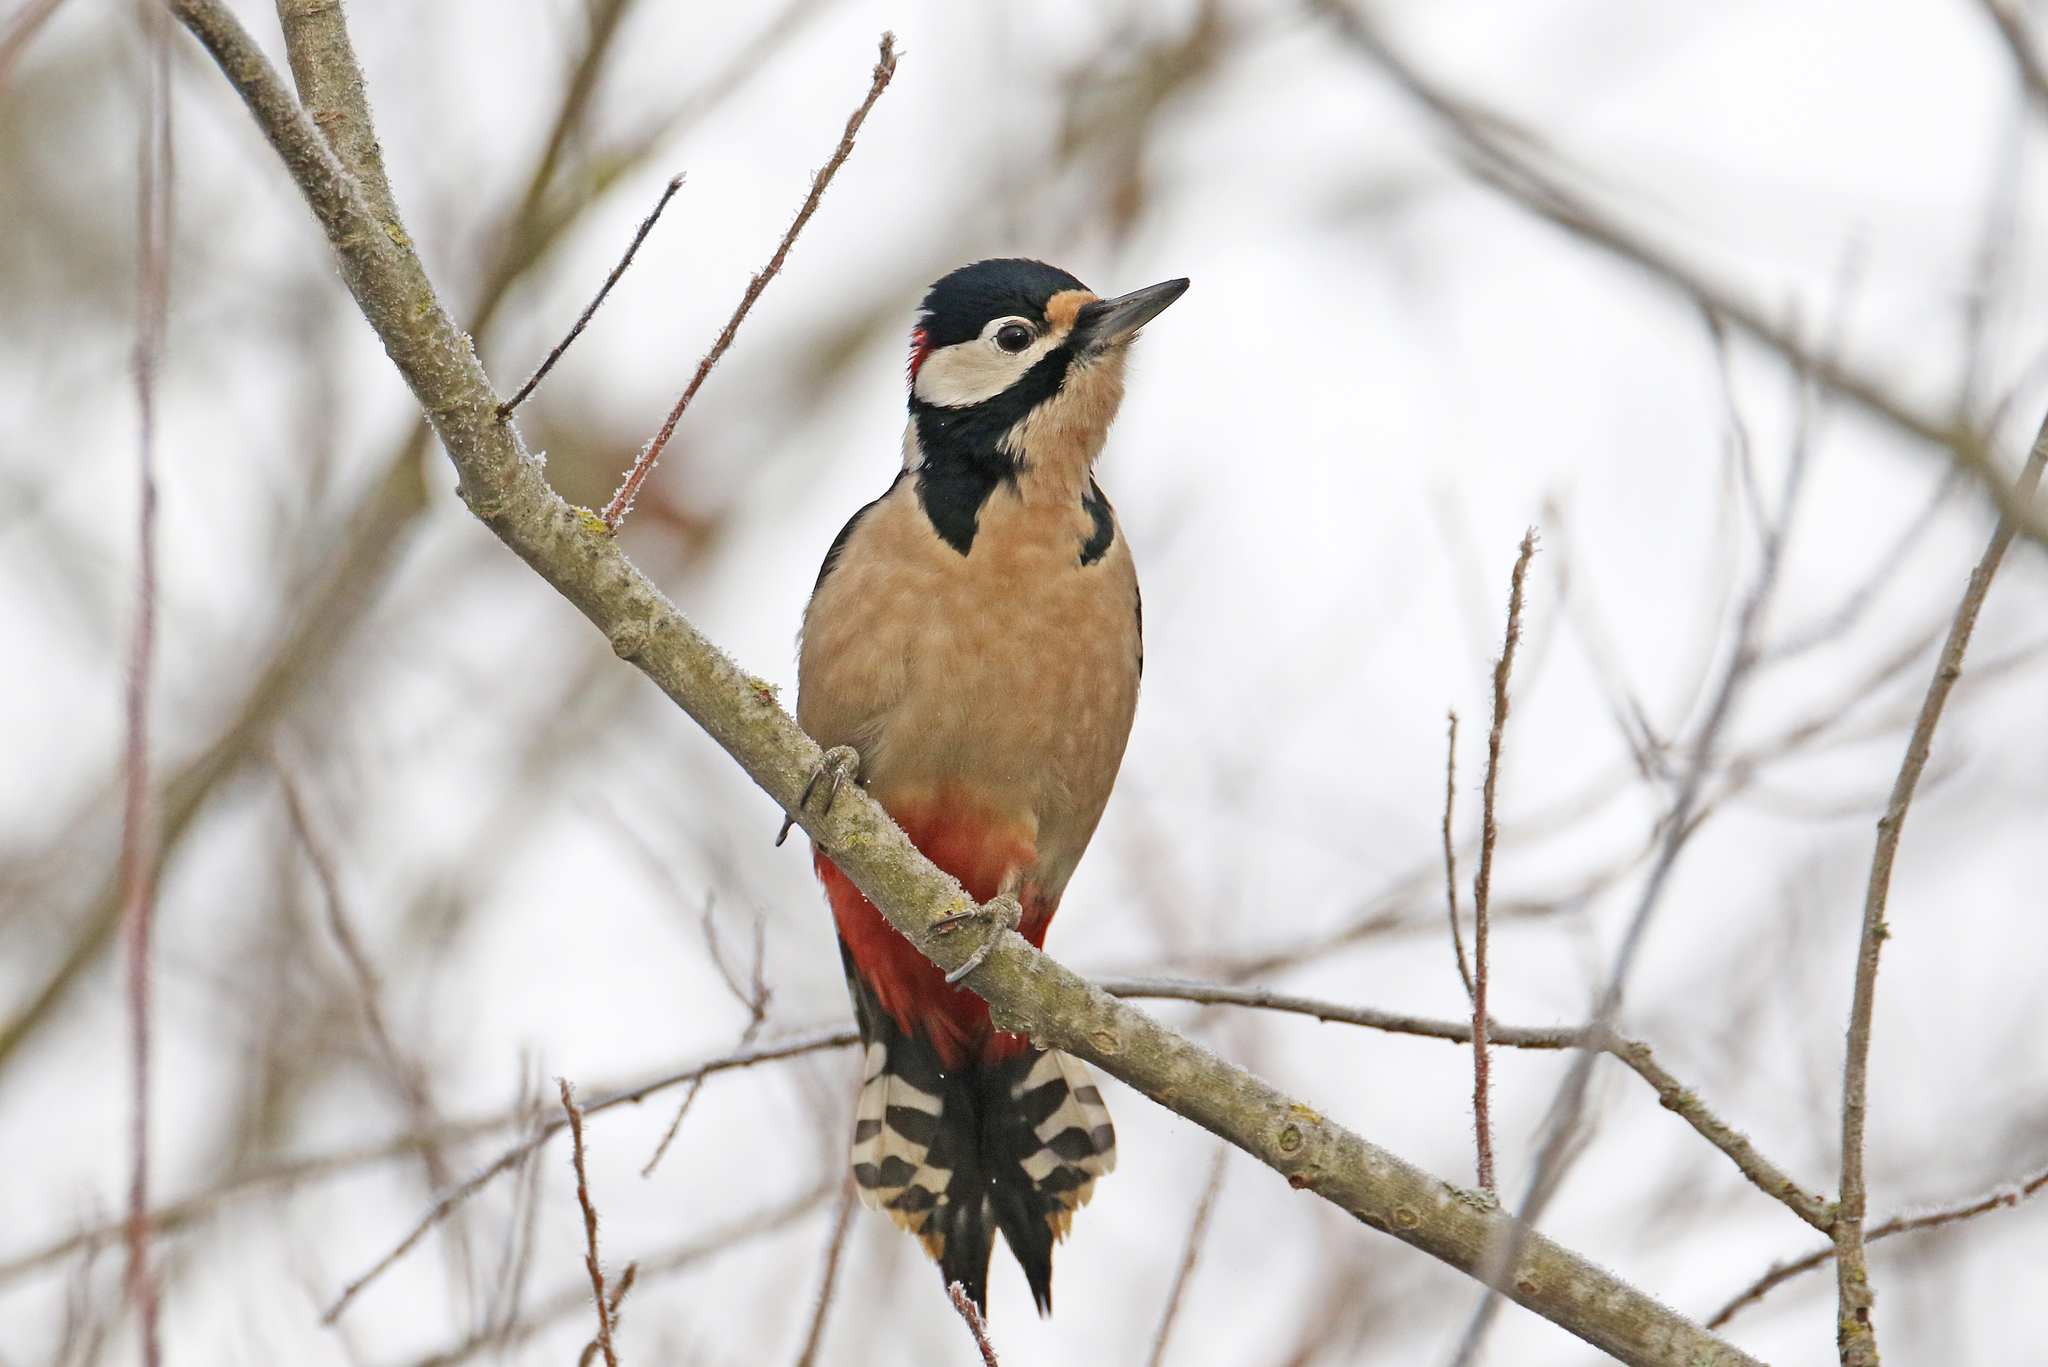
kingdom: Animalia
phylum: Chordata
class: Aves
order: Piciformes
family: Picidae
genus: Dendrocopos
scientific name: Dendrocopos major
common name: Great spotted woodpecker
